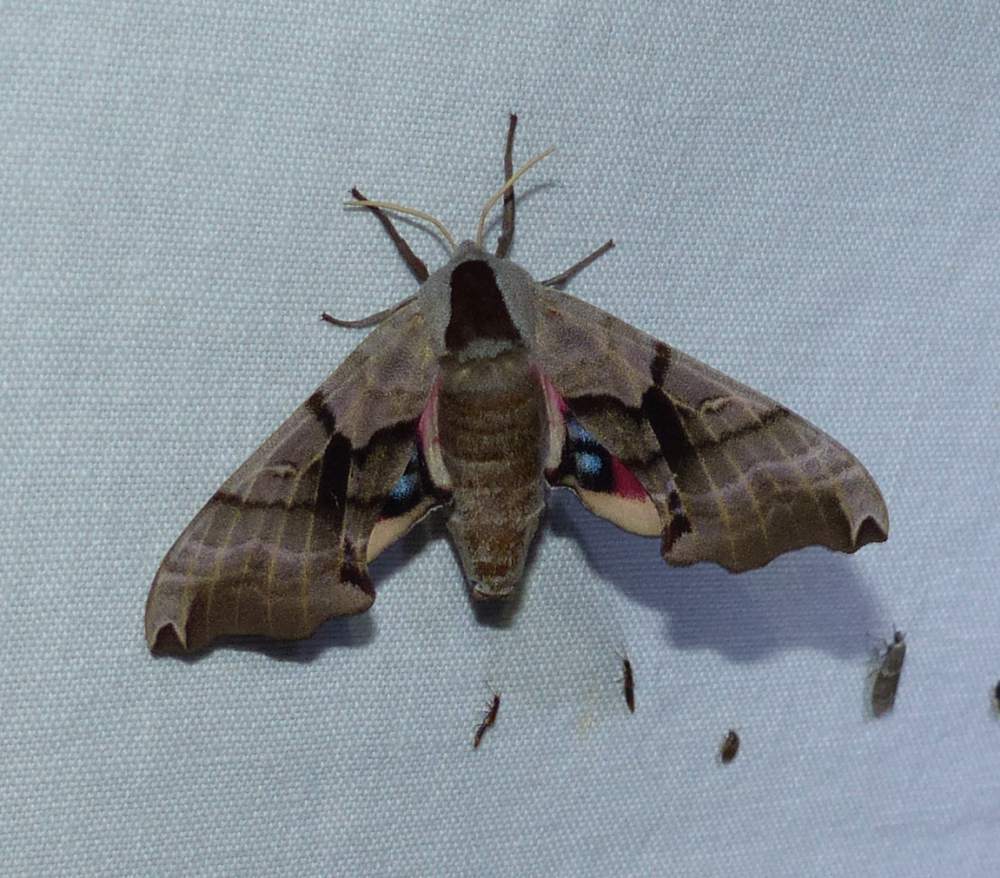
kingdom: Animalia
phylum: Arthropoda
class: Insecta
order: Lepidoptera
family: Sphingidae
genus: Smerinthus
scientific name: Smerinthus jamaicensis
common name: Twin spotted sphinx
